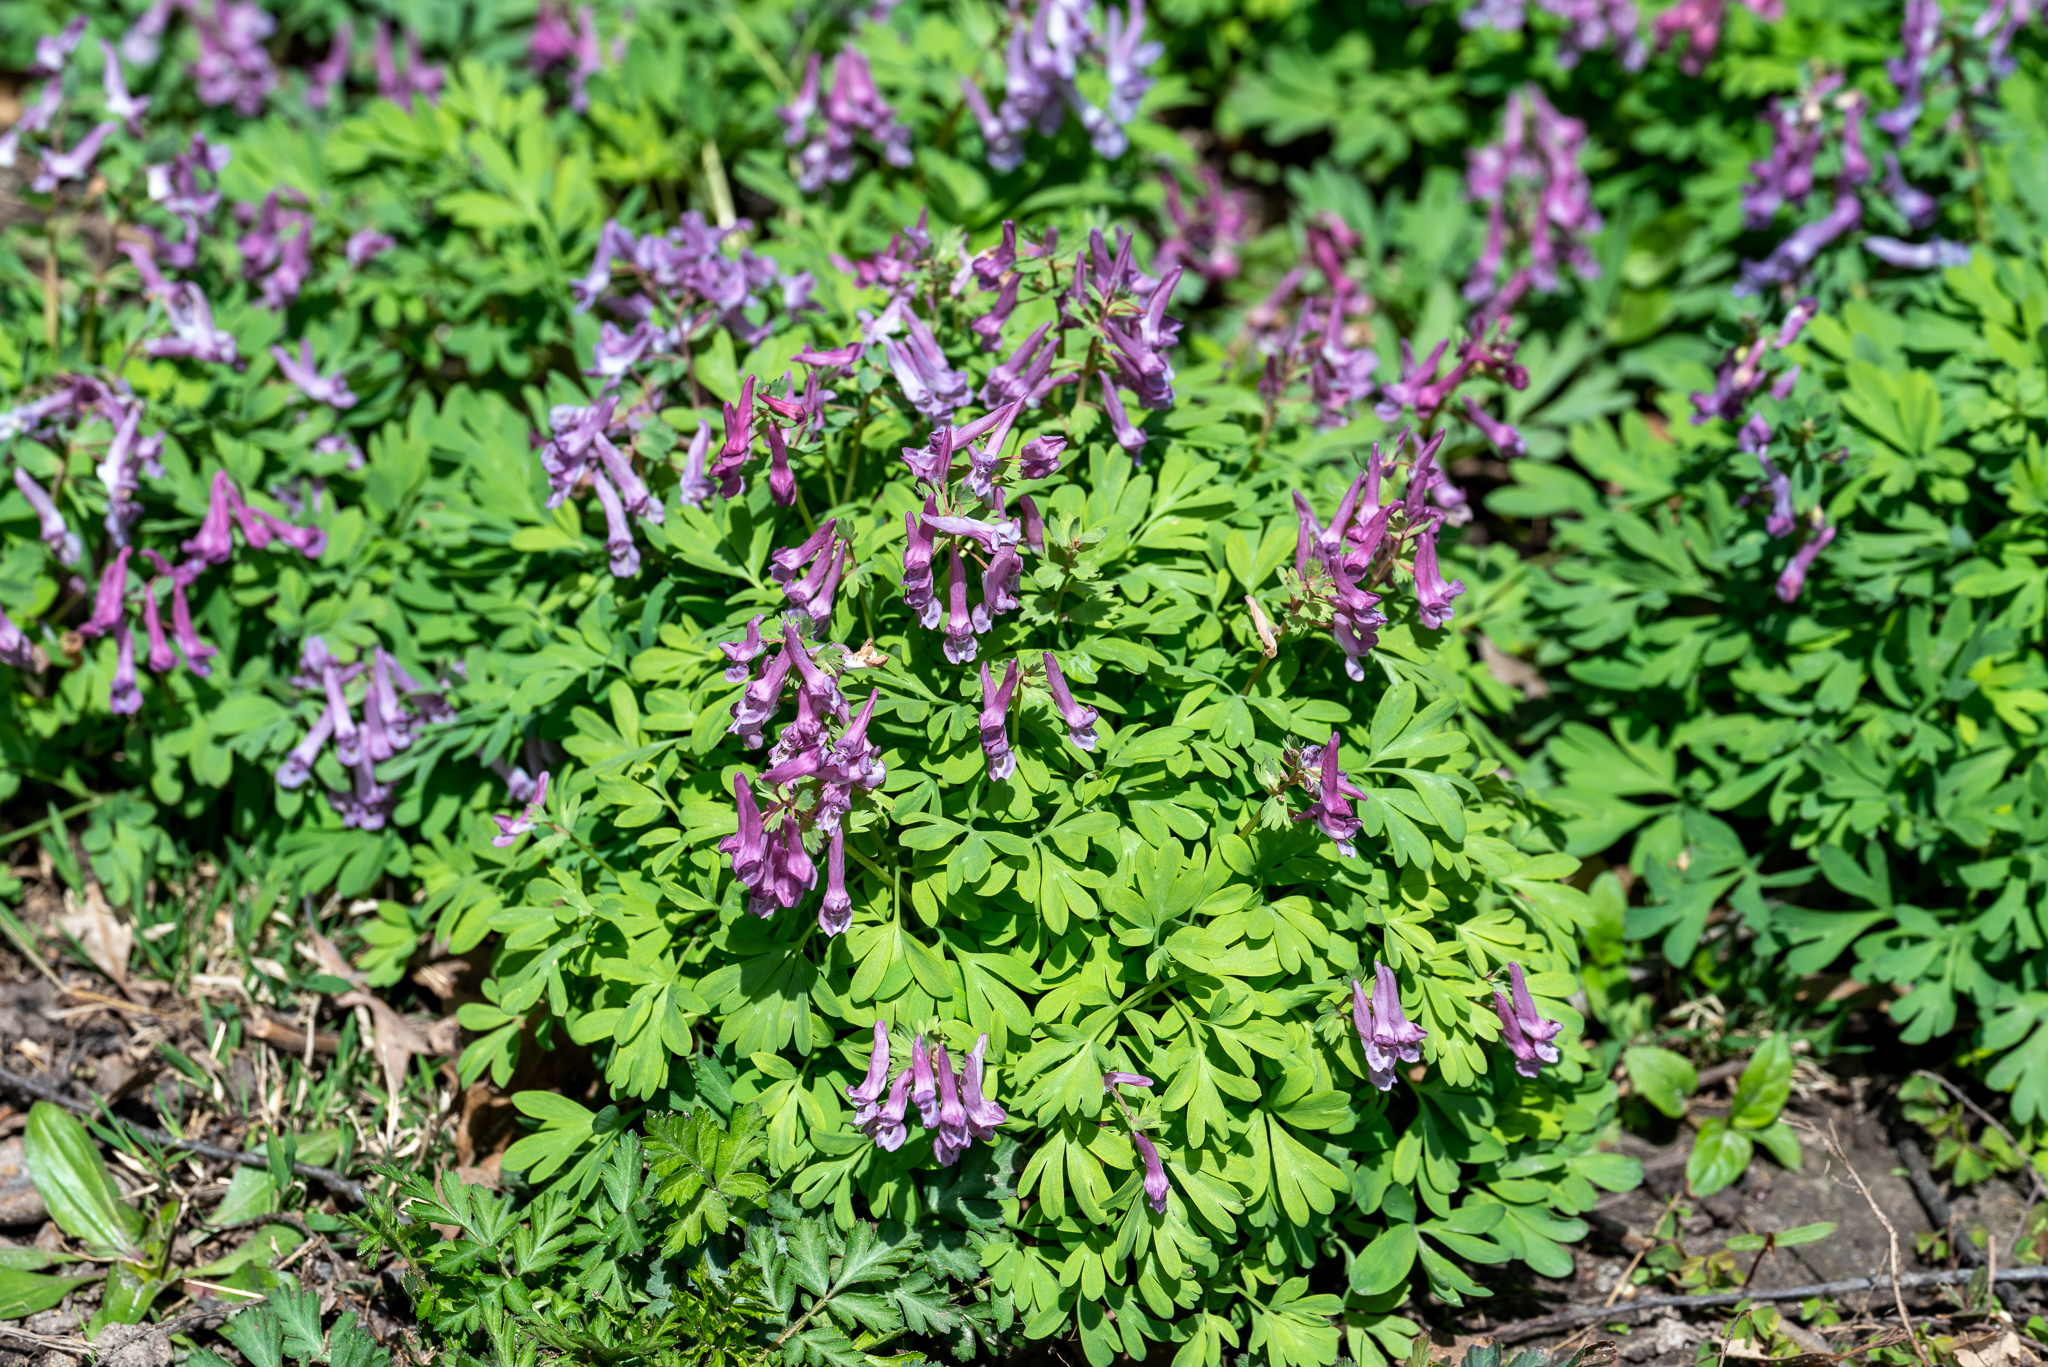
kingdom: Plantae
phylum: Tracheophyta
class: Magnoliopsida
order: Ranunculales
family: Papaveraceae
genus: Corydalis
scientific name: Corydalis solida
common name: Bird-in-a-bush
